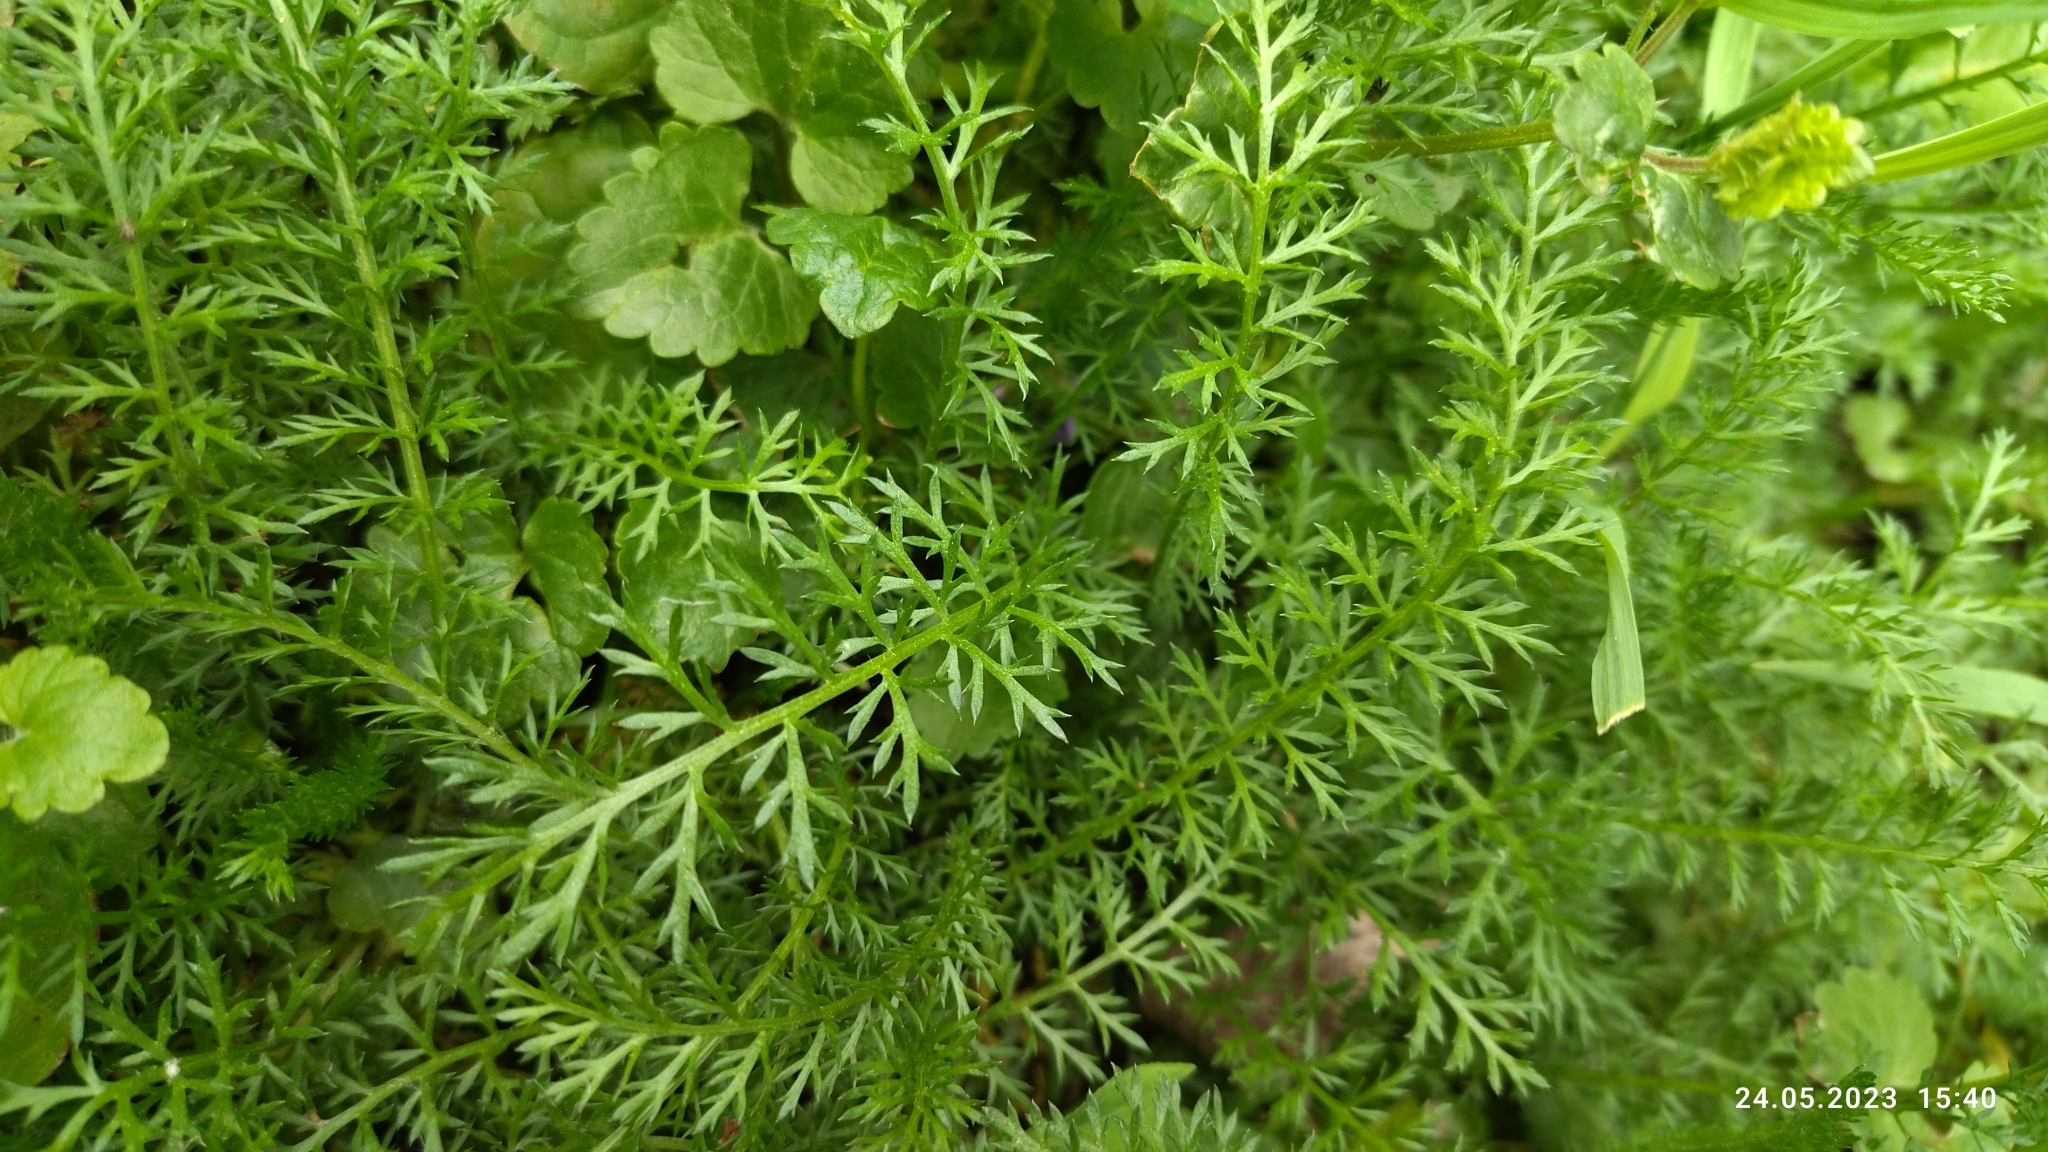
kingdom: Plantae
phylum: Tracheophyta
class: Magnoliopsida
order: Asterales
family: Asteraceae
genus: Achillea
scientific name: Achillea millefolium
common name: Yarrow
